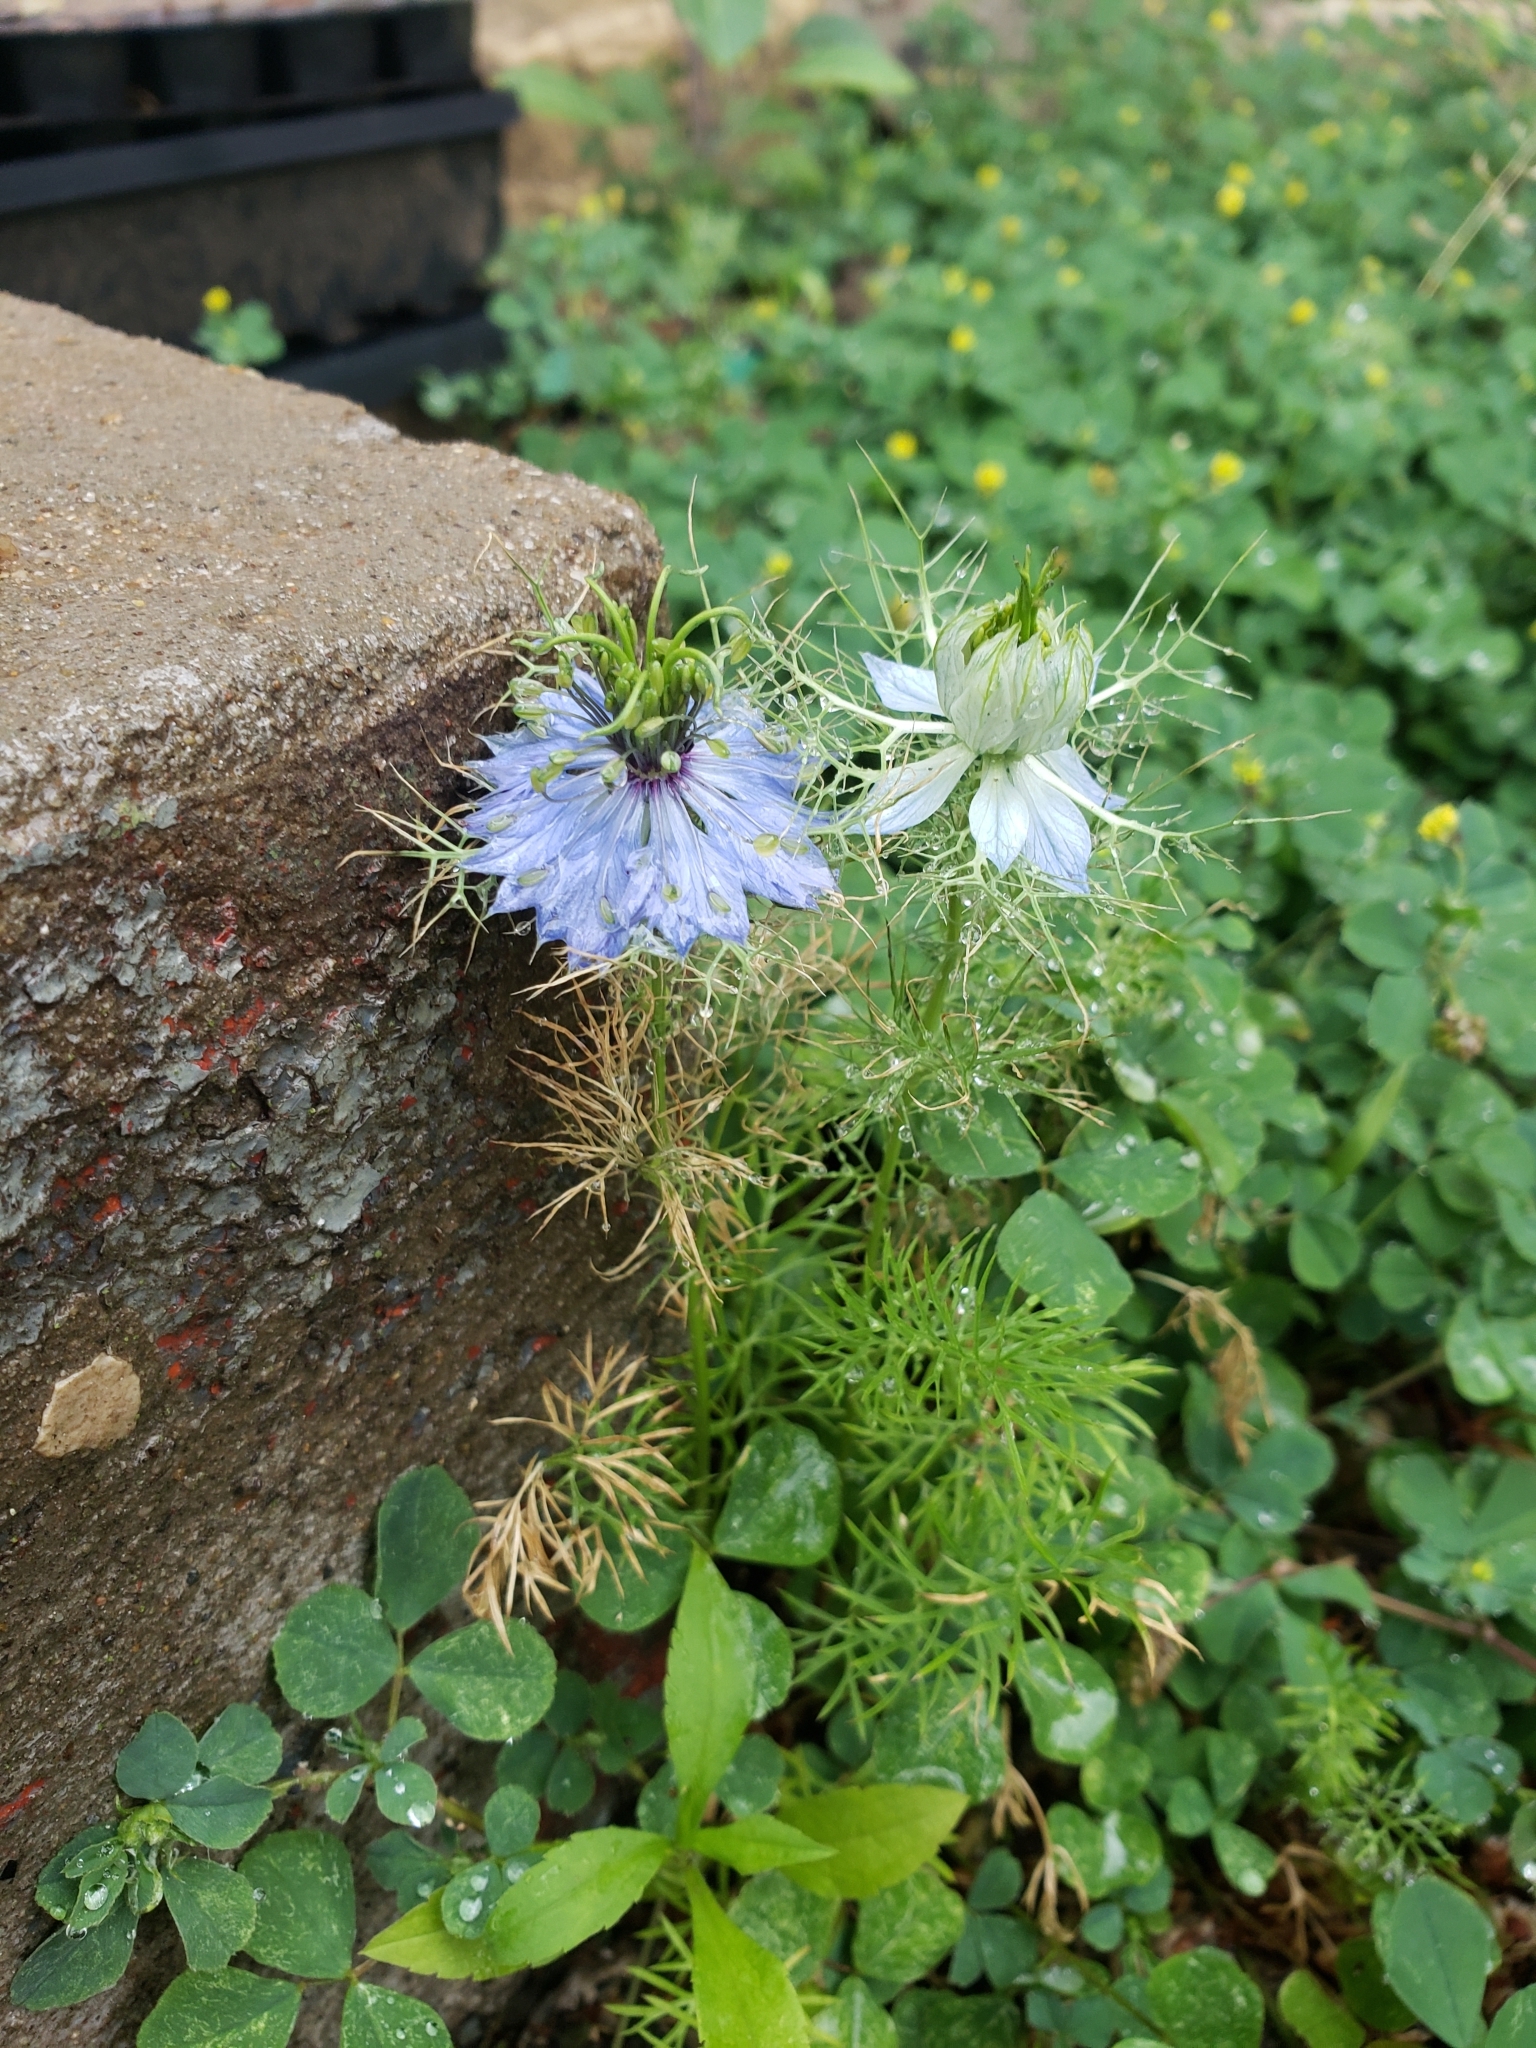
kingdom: Plantae
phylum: Tracheophyta
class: Magnoliopsida
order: Ranunculales
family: Ranunculaceae
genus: Nigella
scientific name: Nigella damascena
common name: Love-in-a-mist
